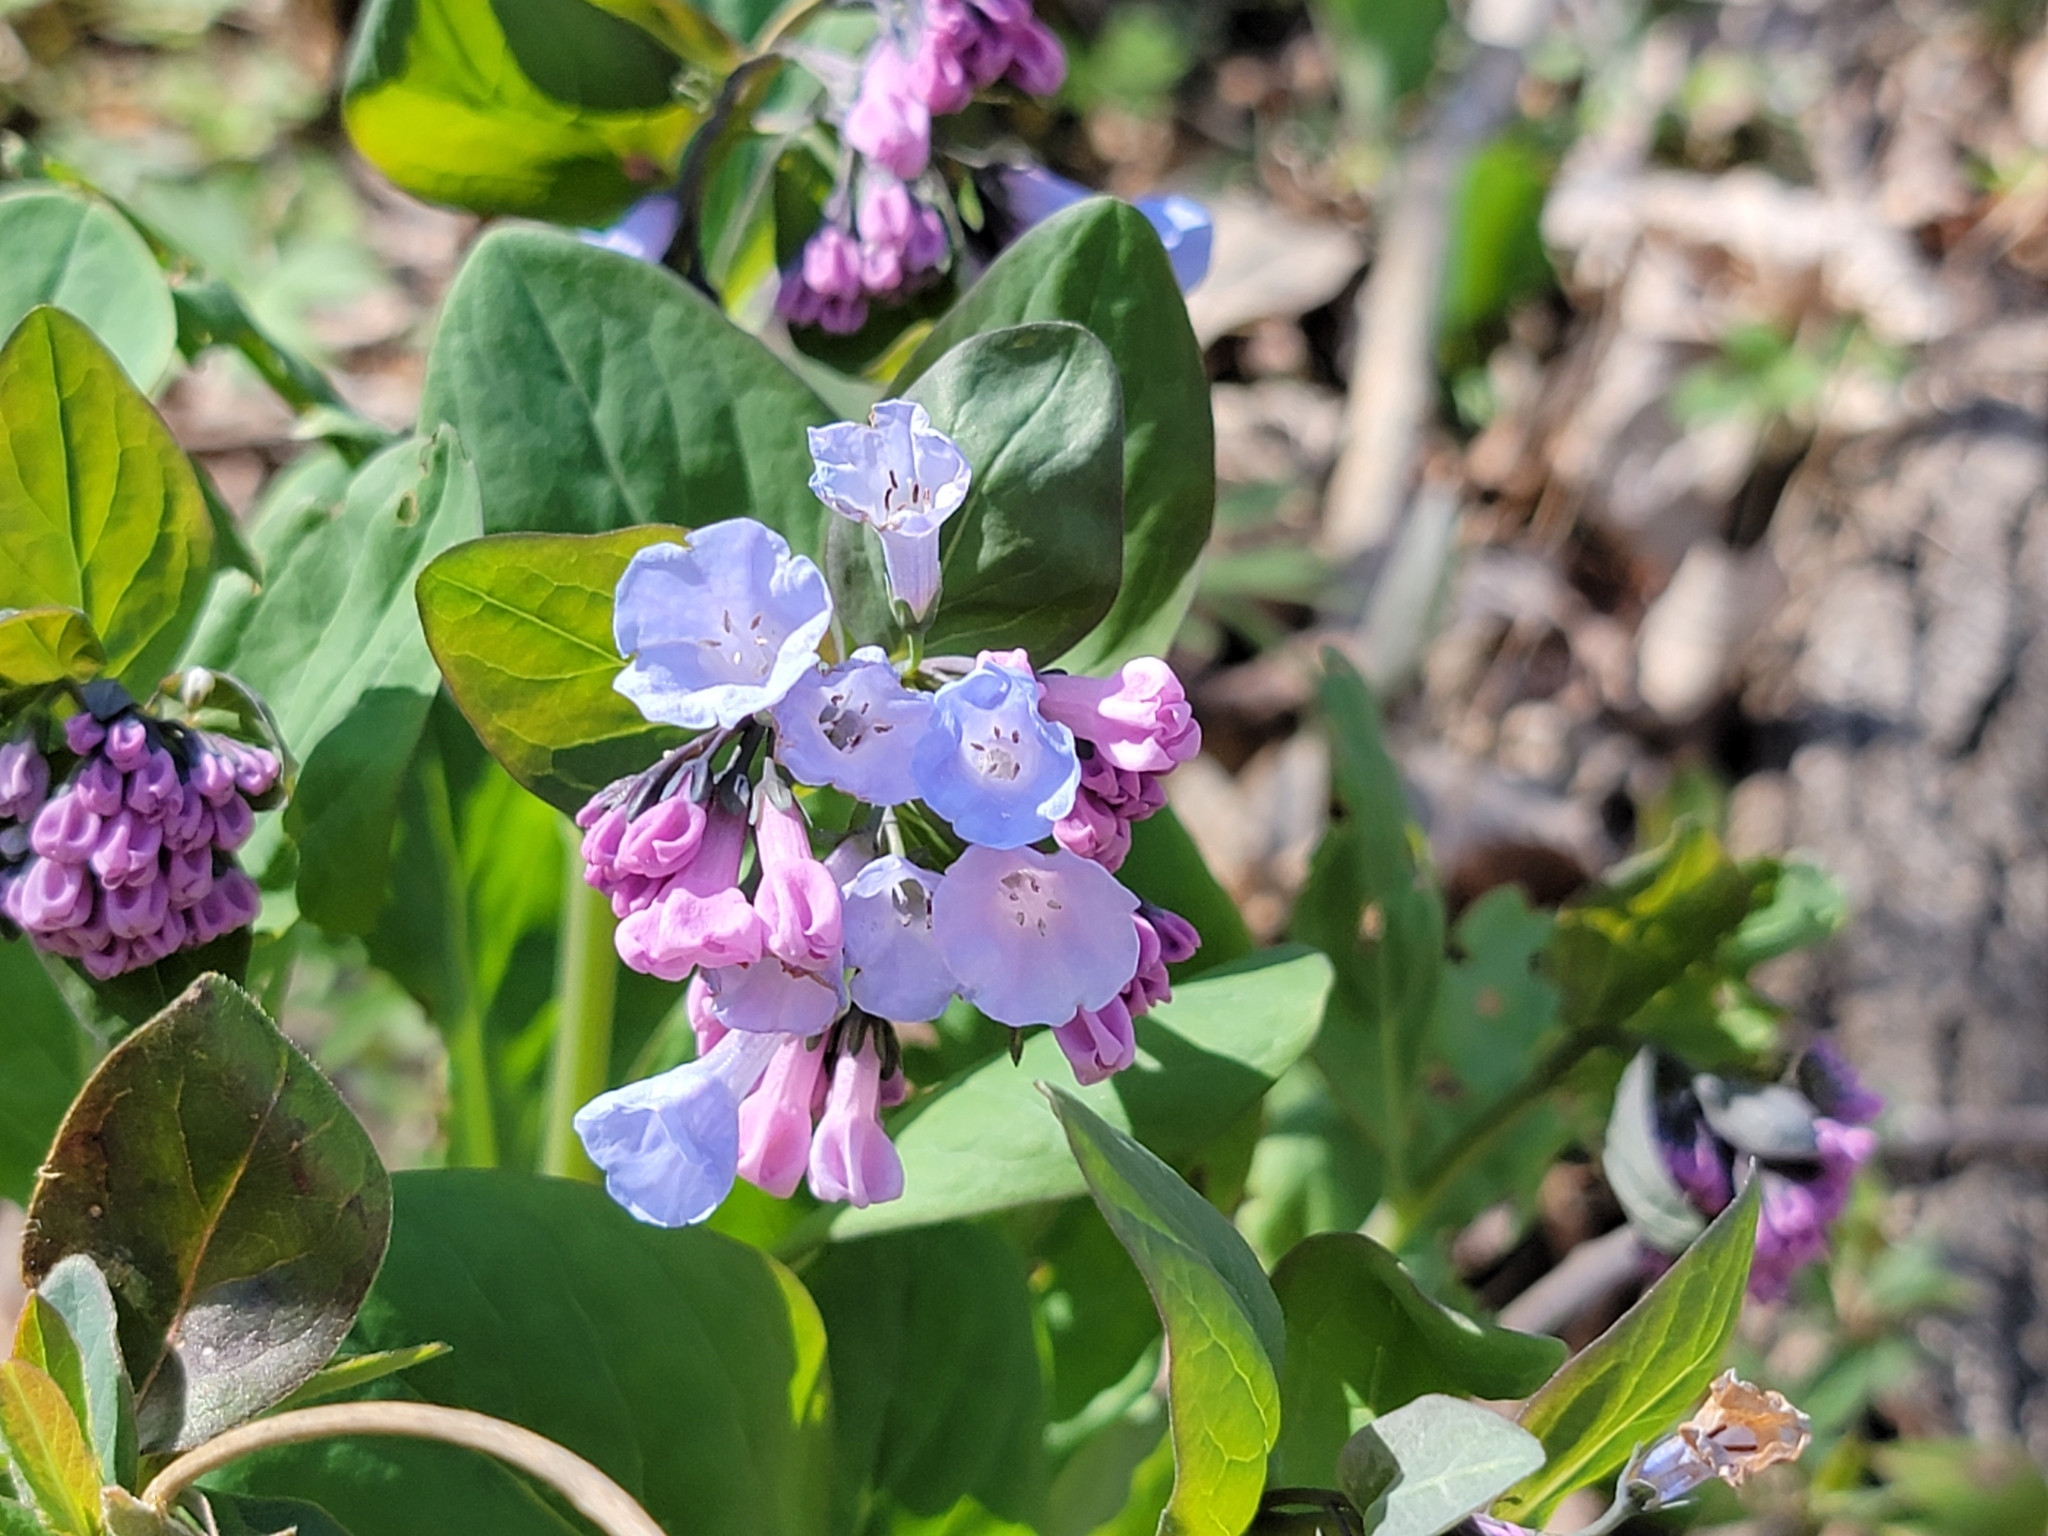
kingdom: Plantae
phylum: Tracheophyta
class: Magnoliopsida
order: Boraginales
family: Boraginaceae
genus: Mertensia
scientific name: Mertensia virginica
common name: Virginia bluebells
